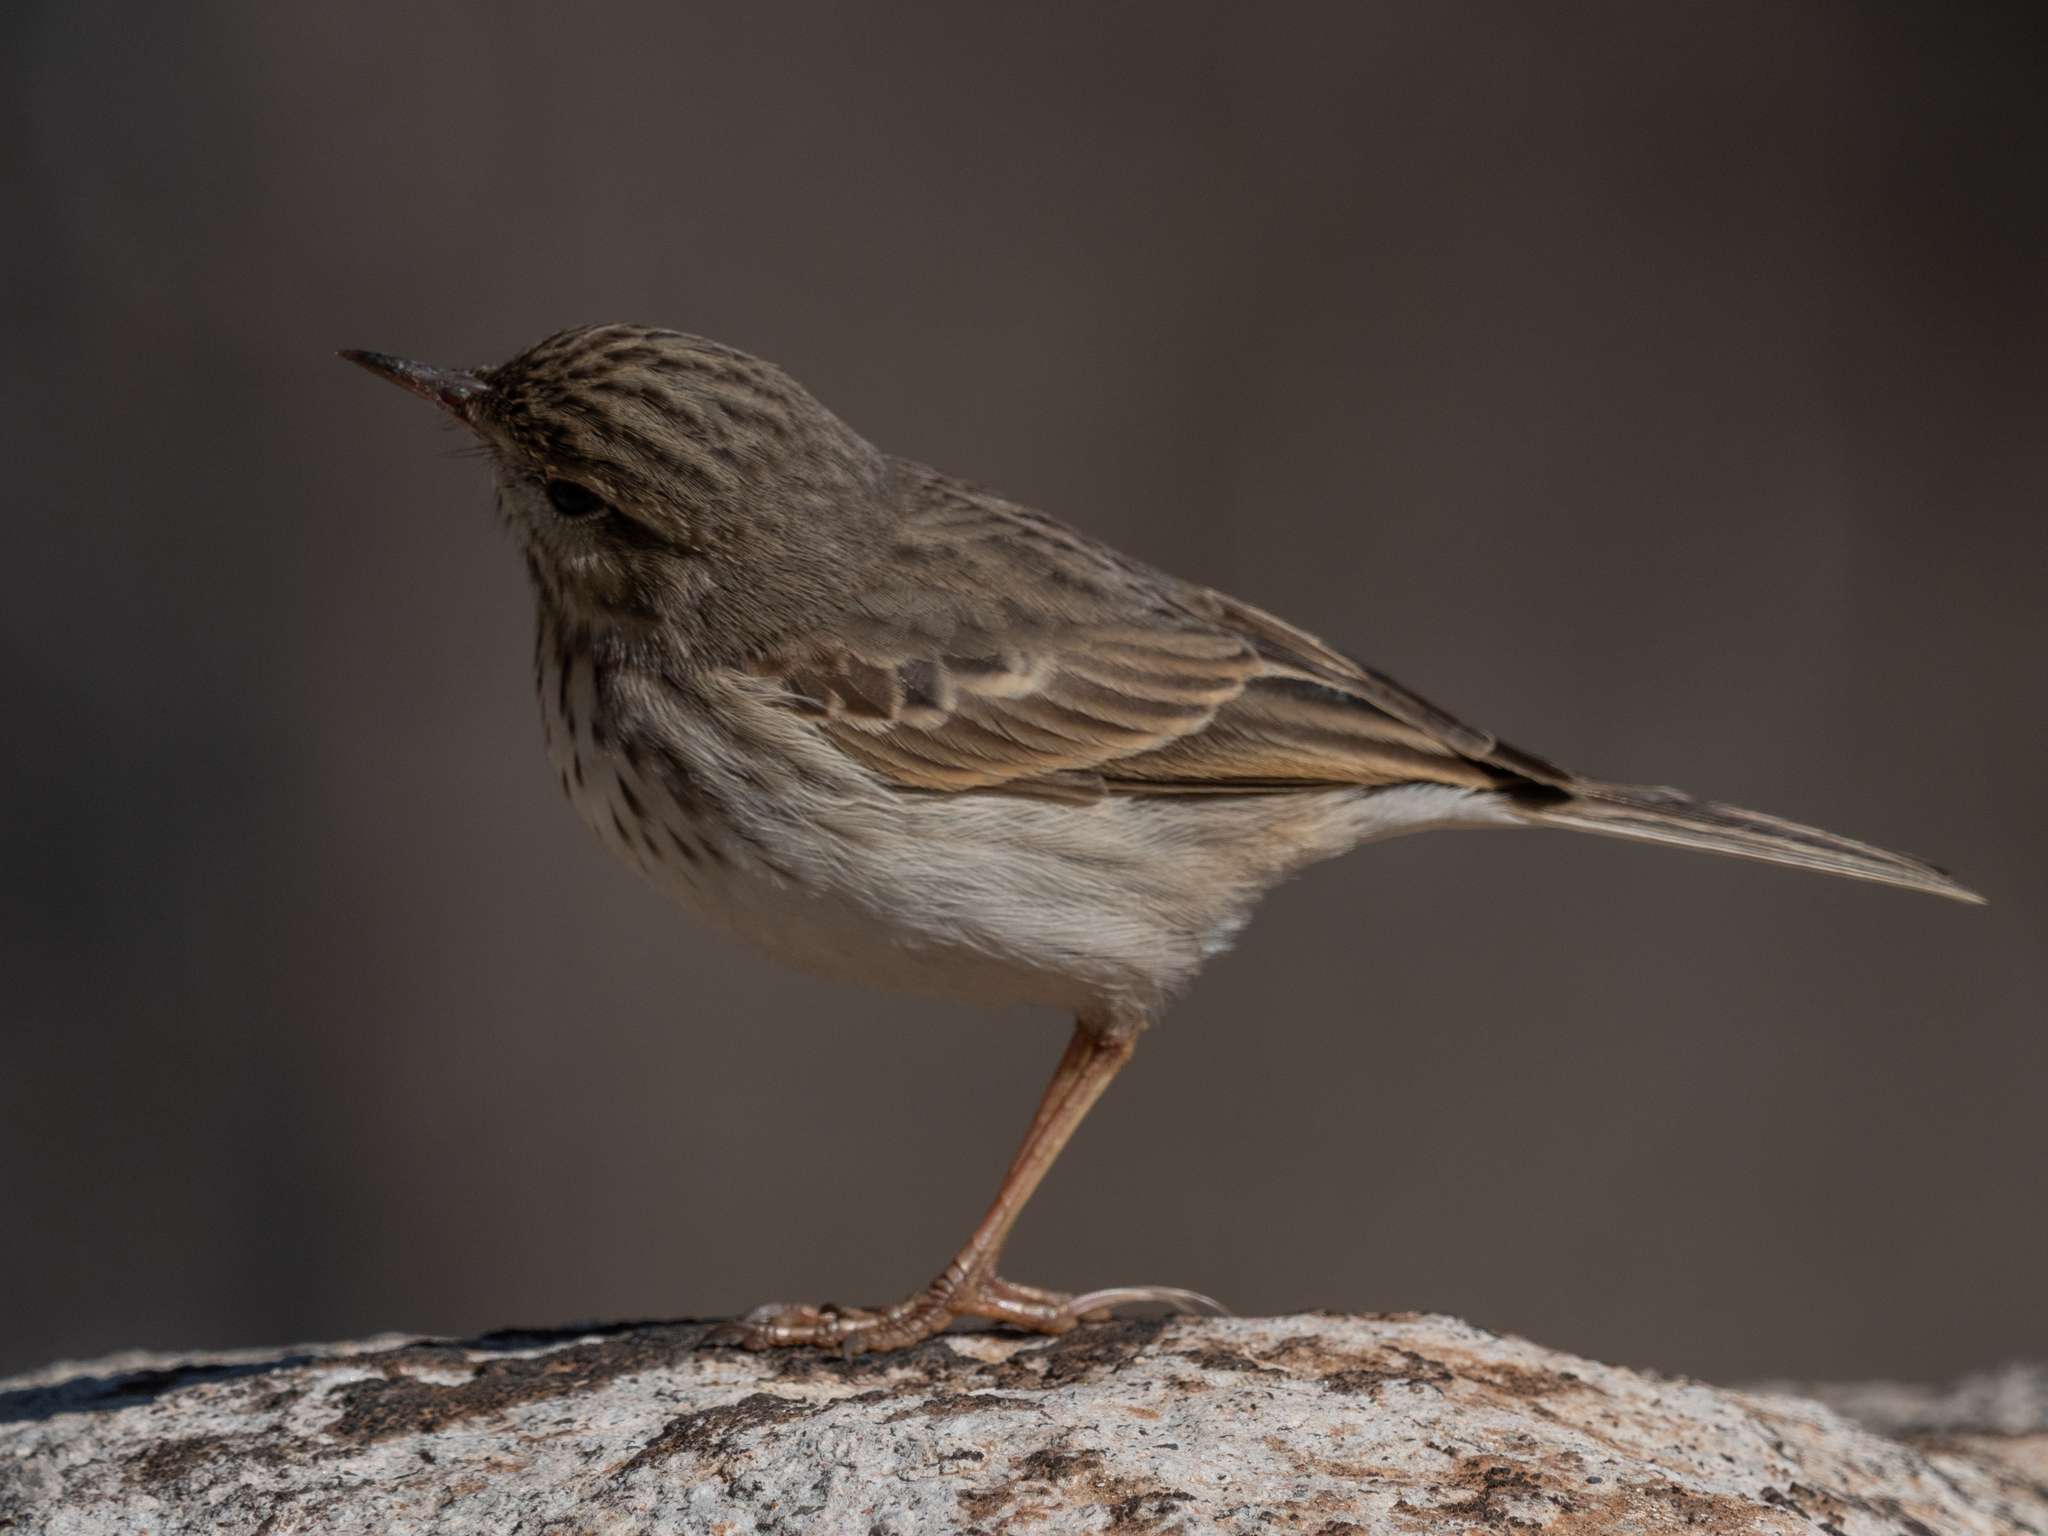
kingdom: Animalia
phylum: Chordata
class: Aves
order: Passeriformes
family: Motacillidae
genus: Anthus
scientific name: Anthus berthelotii
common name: Berthelot's pipit
